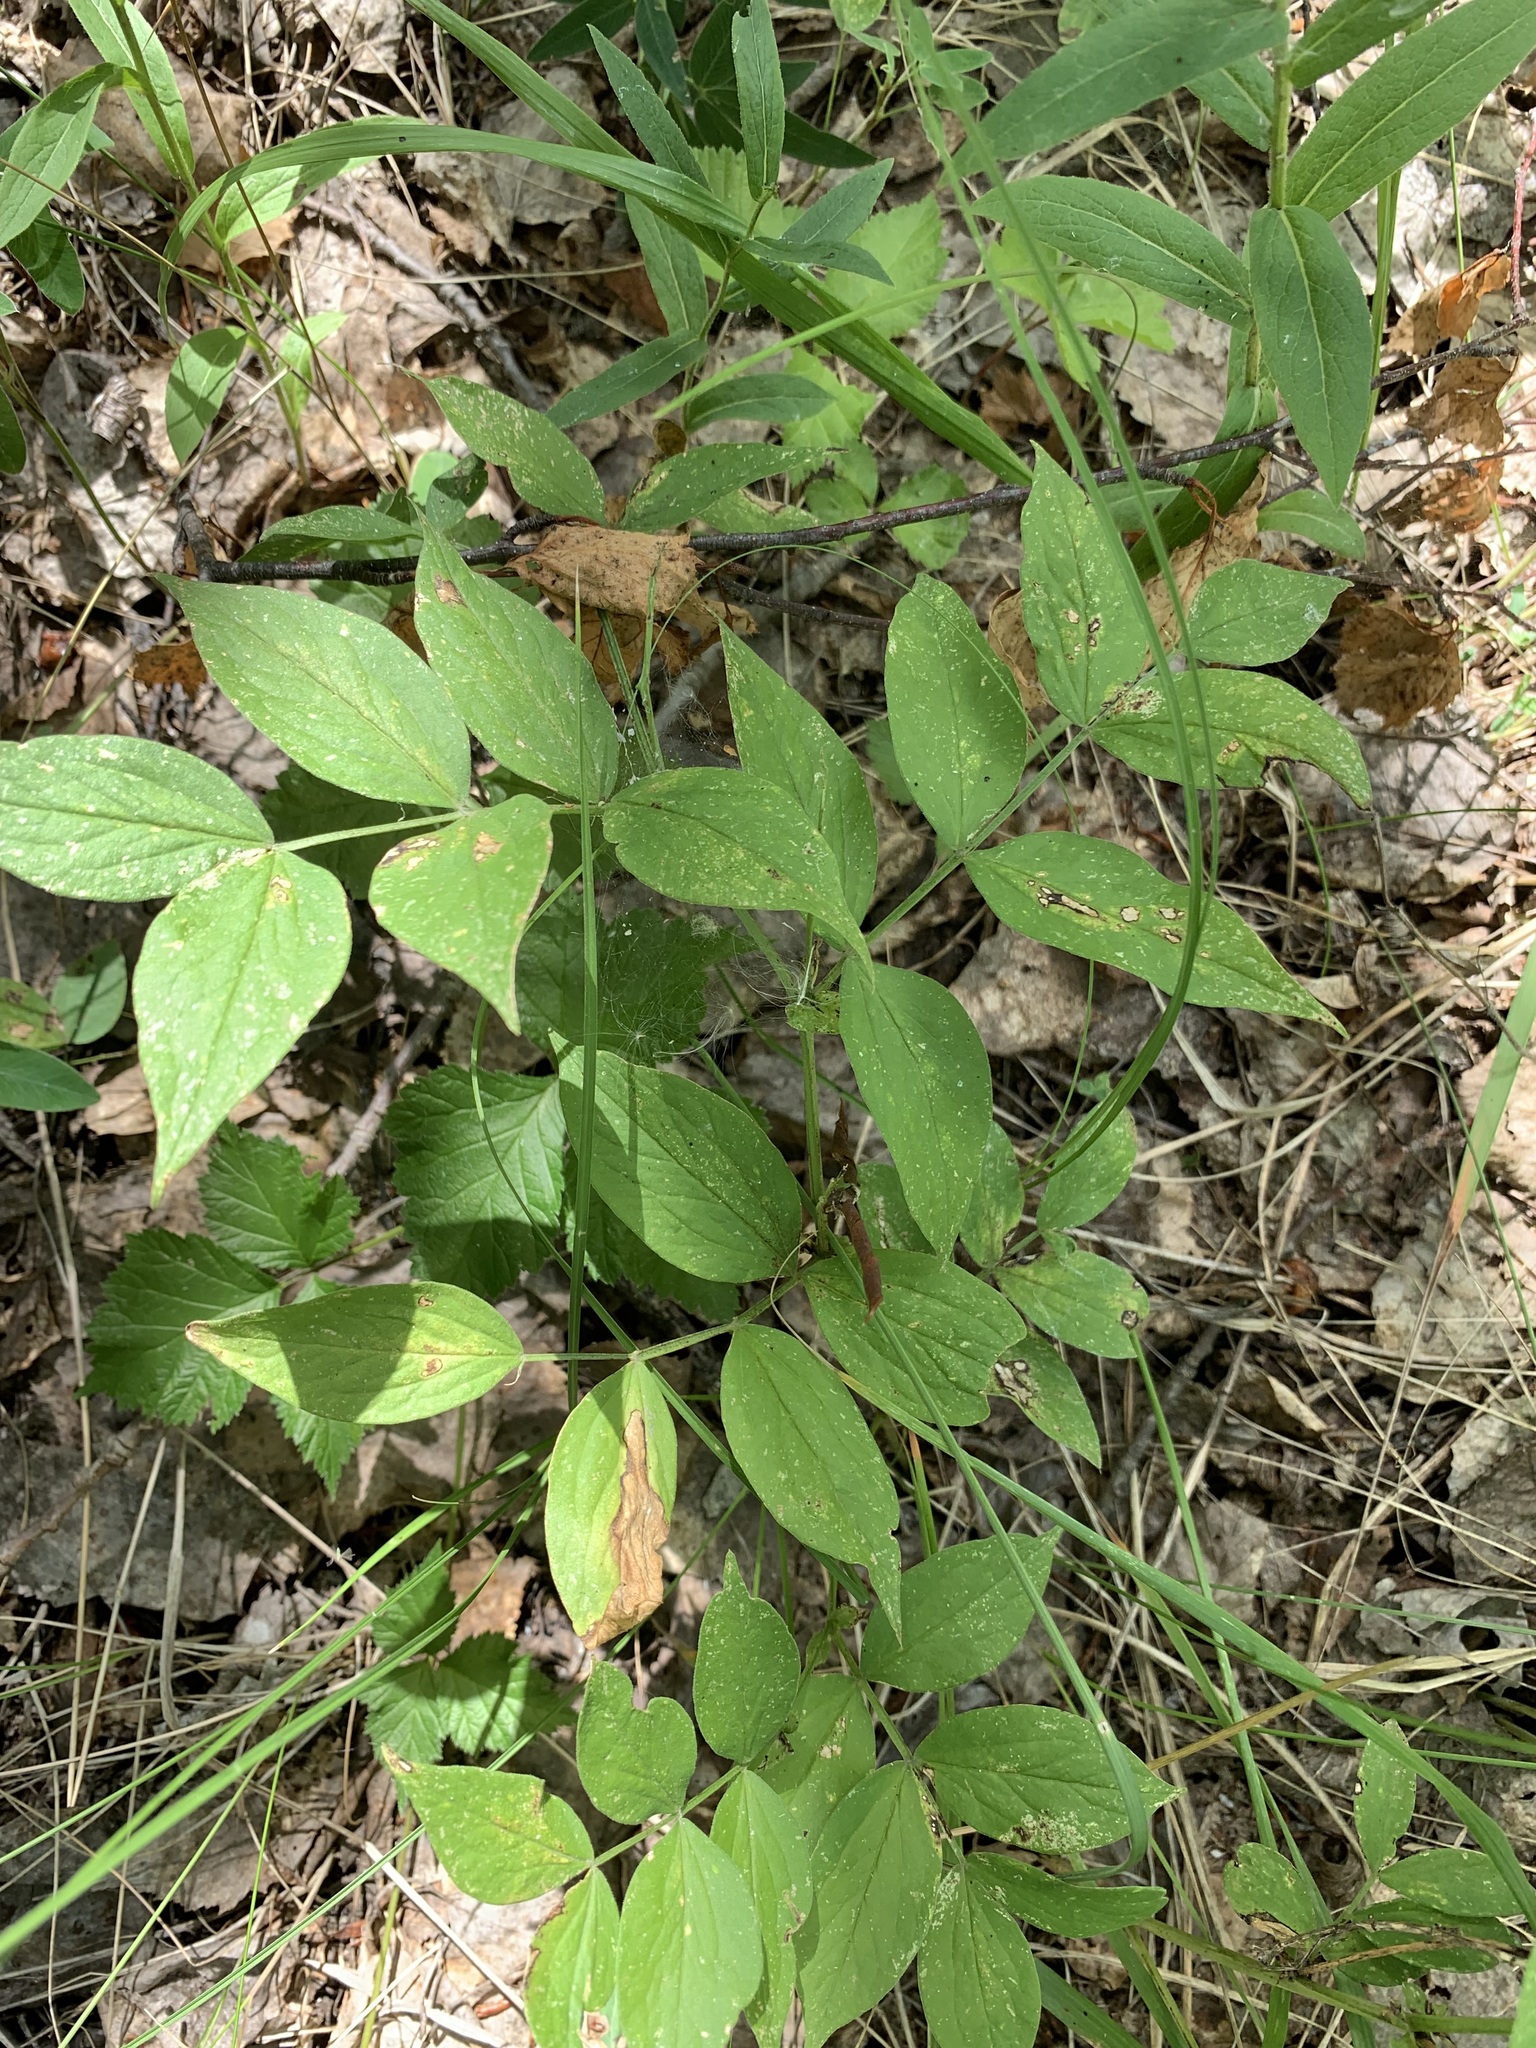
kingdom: Plantae
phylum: Tracheophyta
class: Magnoliopsida
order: Fabales
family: Fabaceae
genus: Lathyrus
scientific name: Lathyrus vernus
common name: Spring pea
